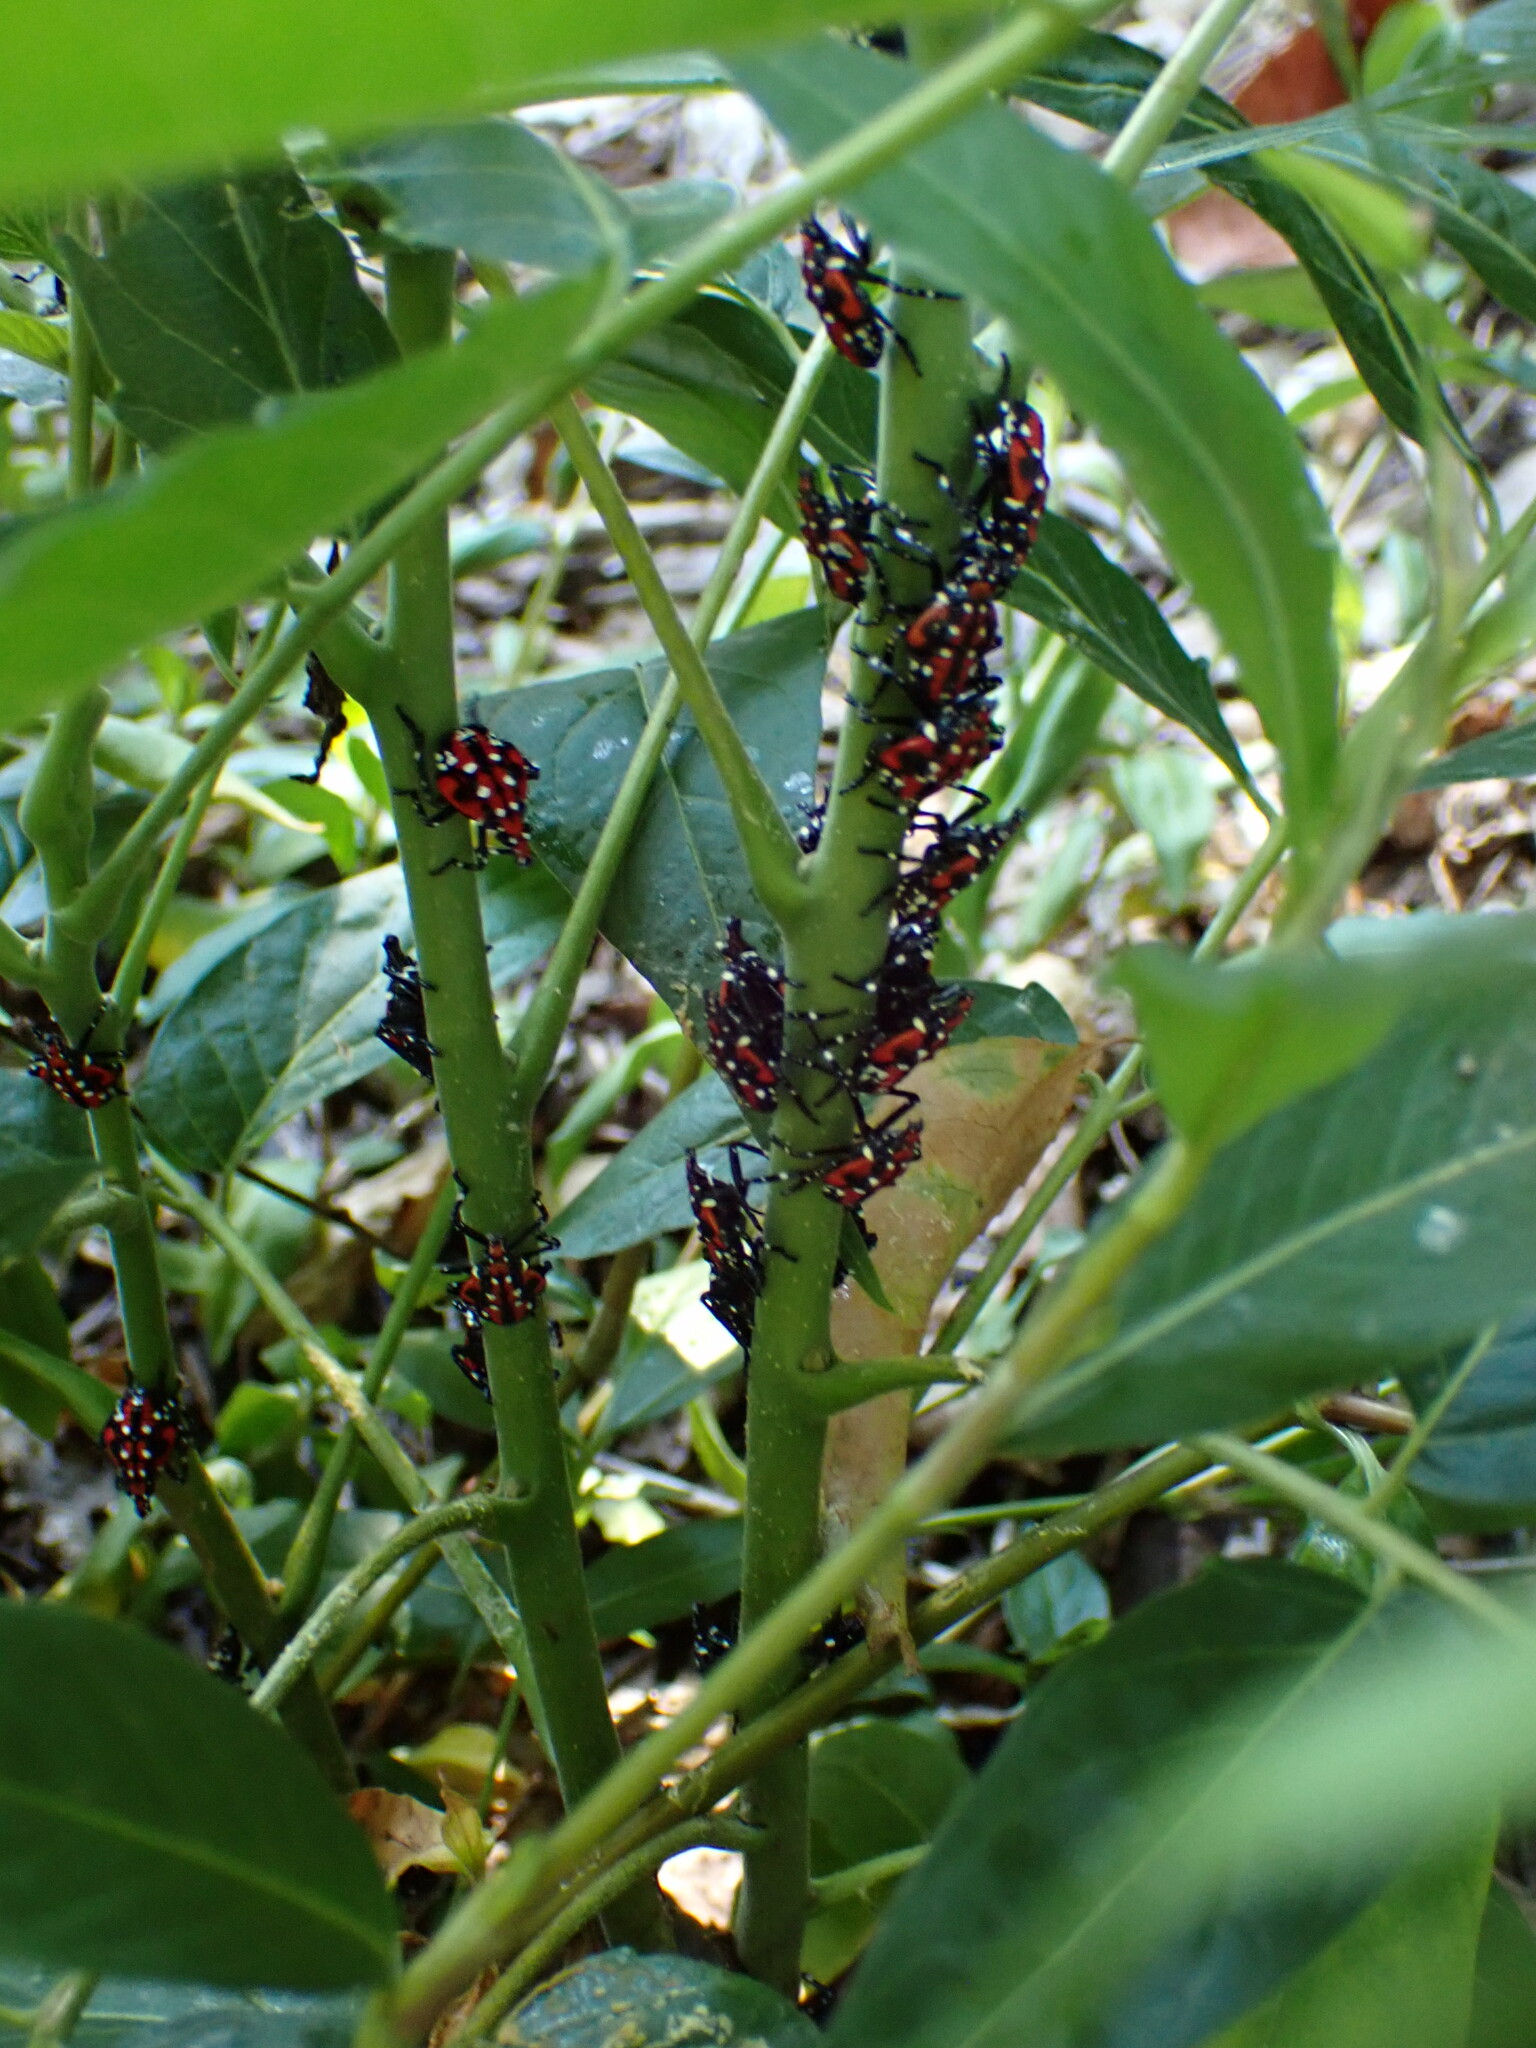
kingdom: Animalia
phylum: Arthropoda
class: Insecta
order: Hemiptera
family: Fulgoridae
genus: Lycorma
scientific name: Lycorma delicatula
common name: Spotted lanternfly
